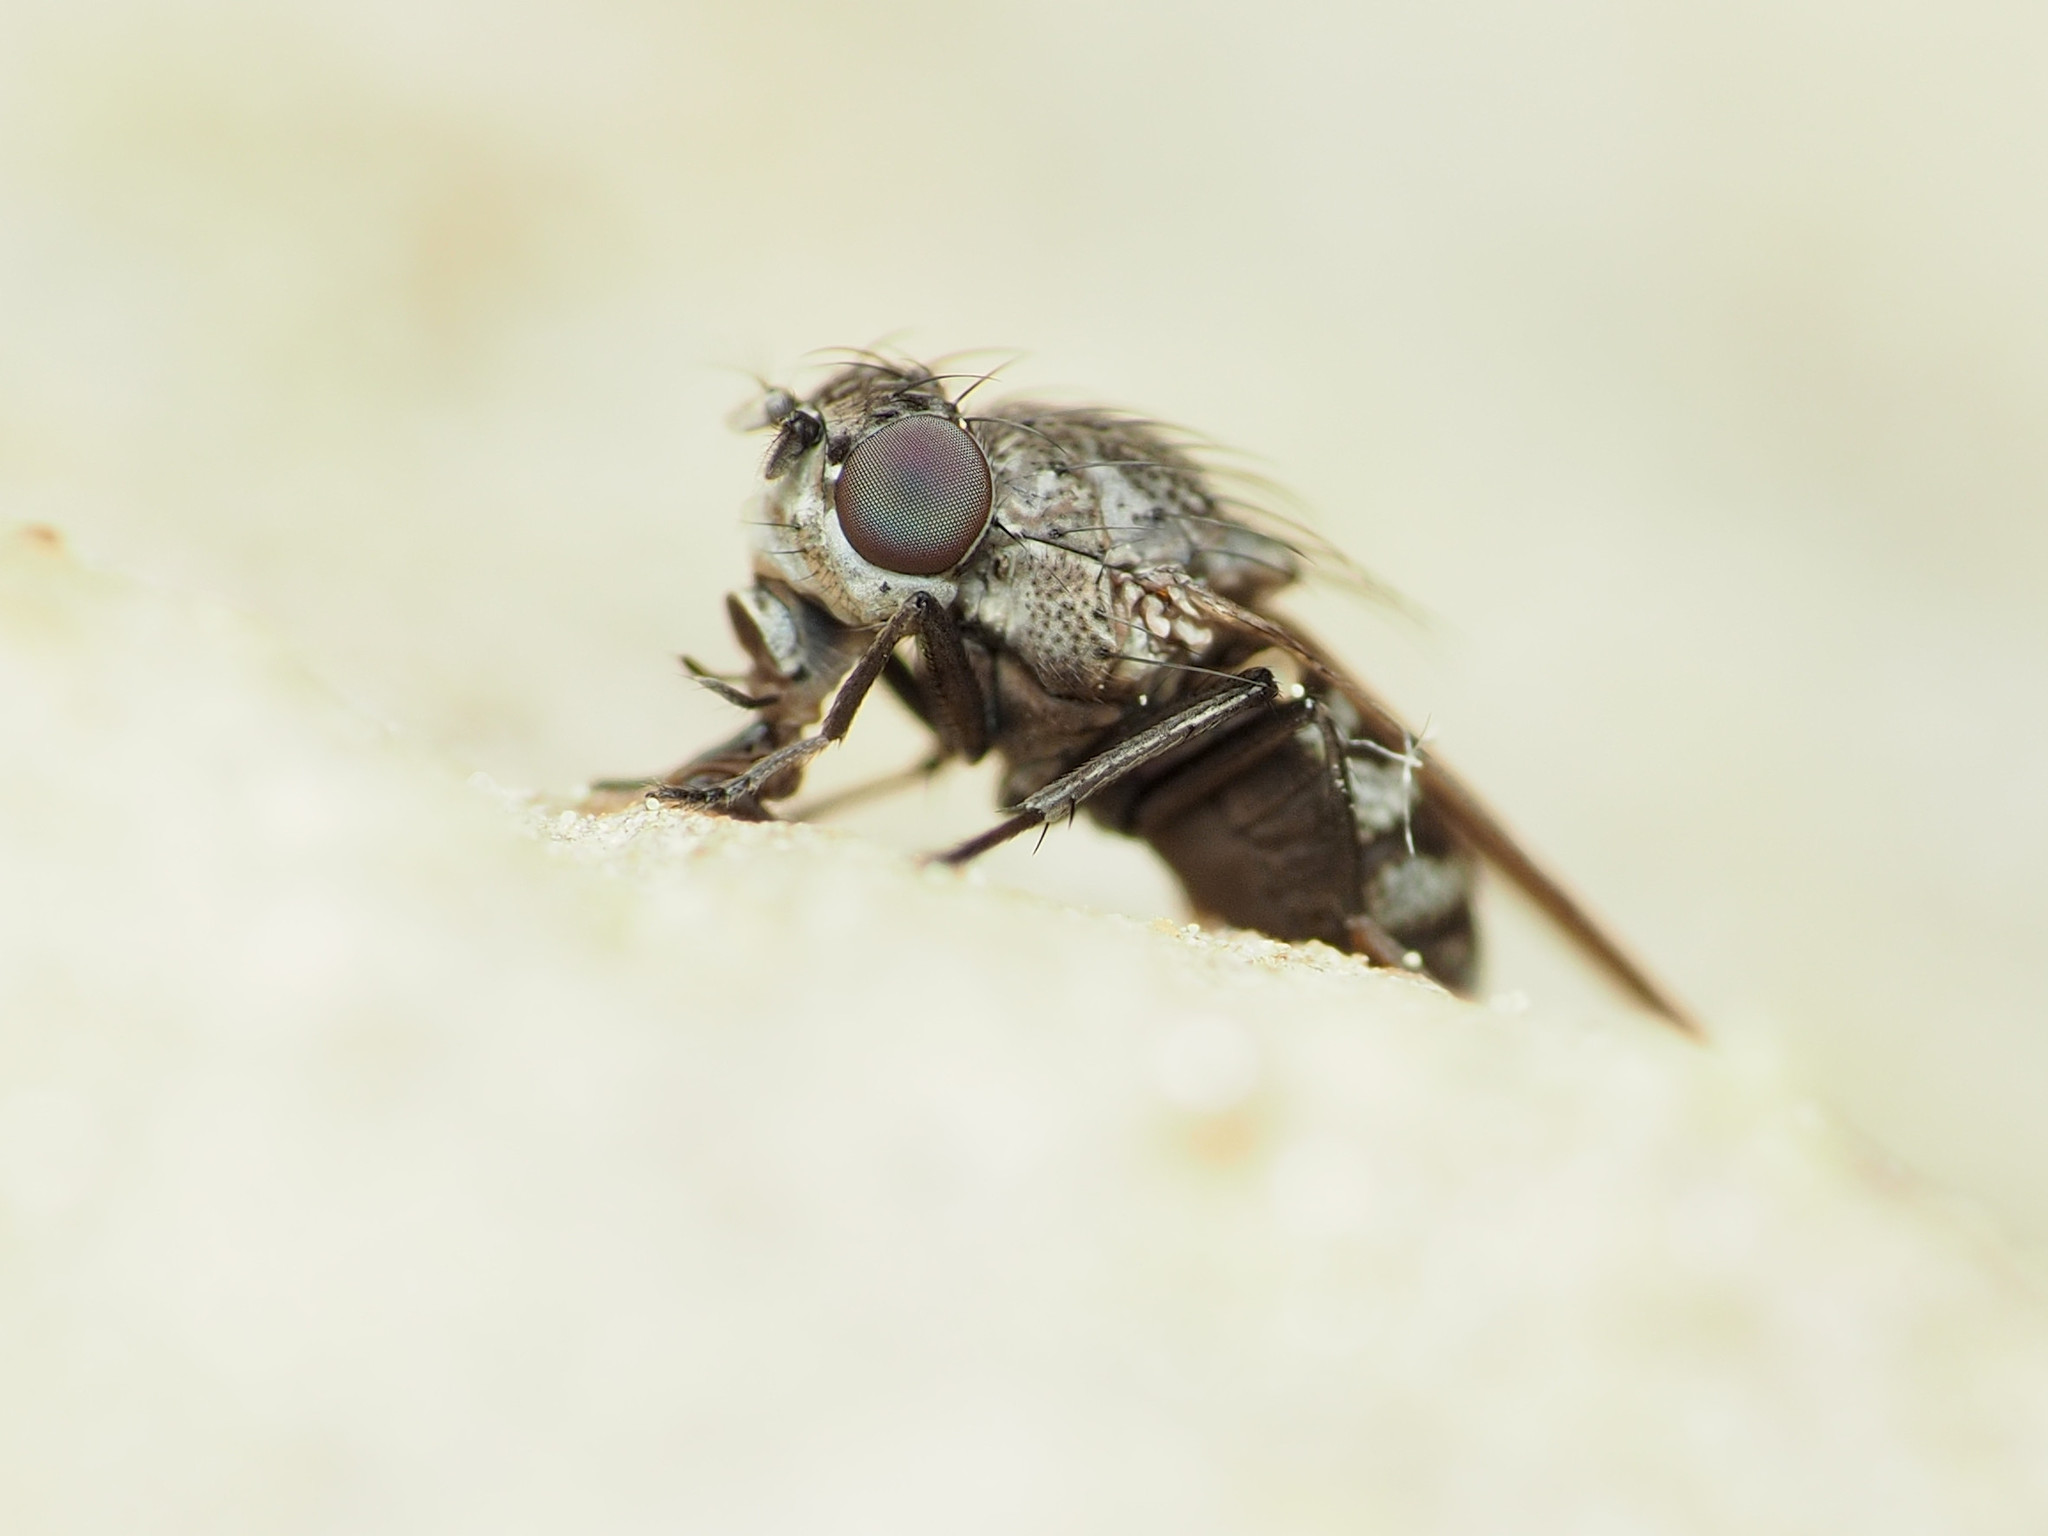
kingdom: Animalia
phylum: Arthropoda
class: Insecta
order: Diptera
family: Ephydridae
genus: Paralimna
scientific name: Paralimna punctipennis
